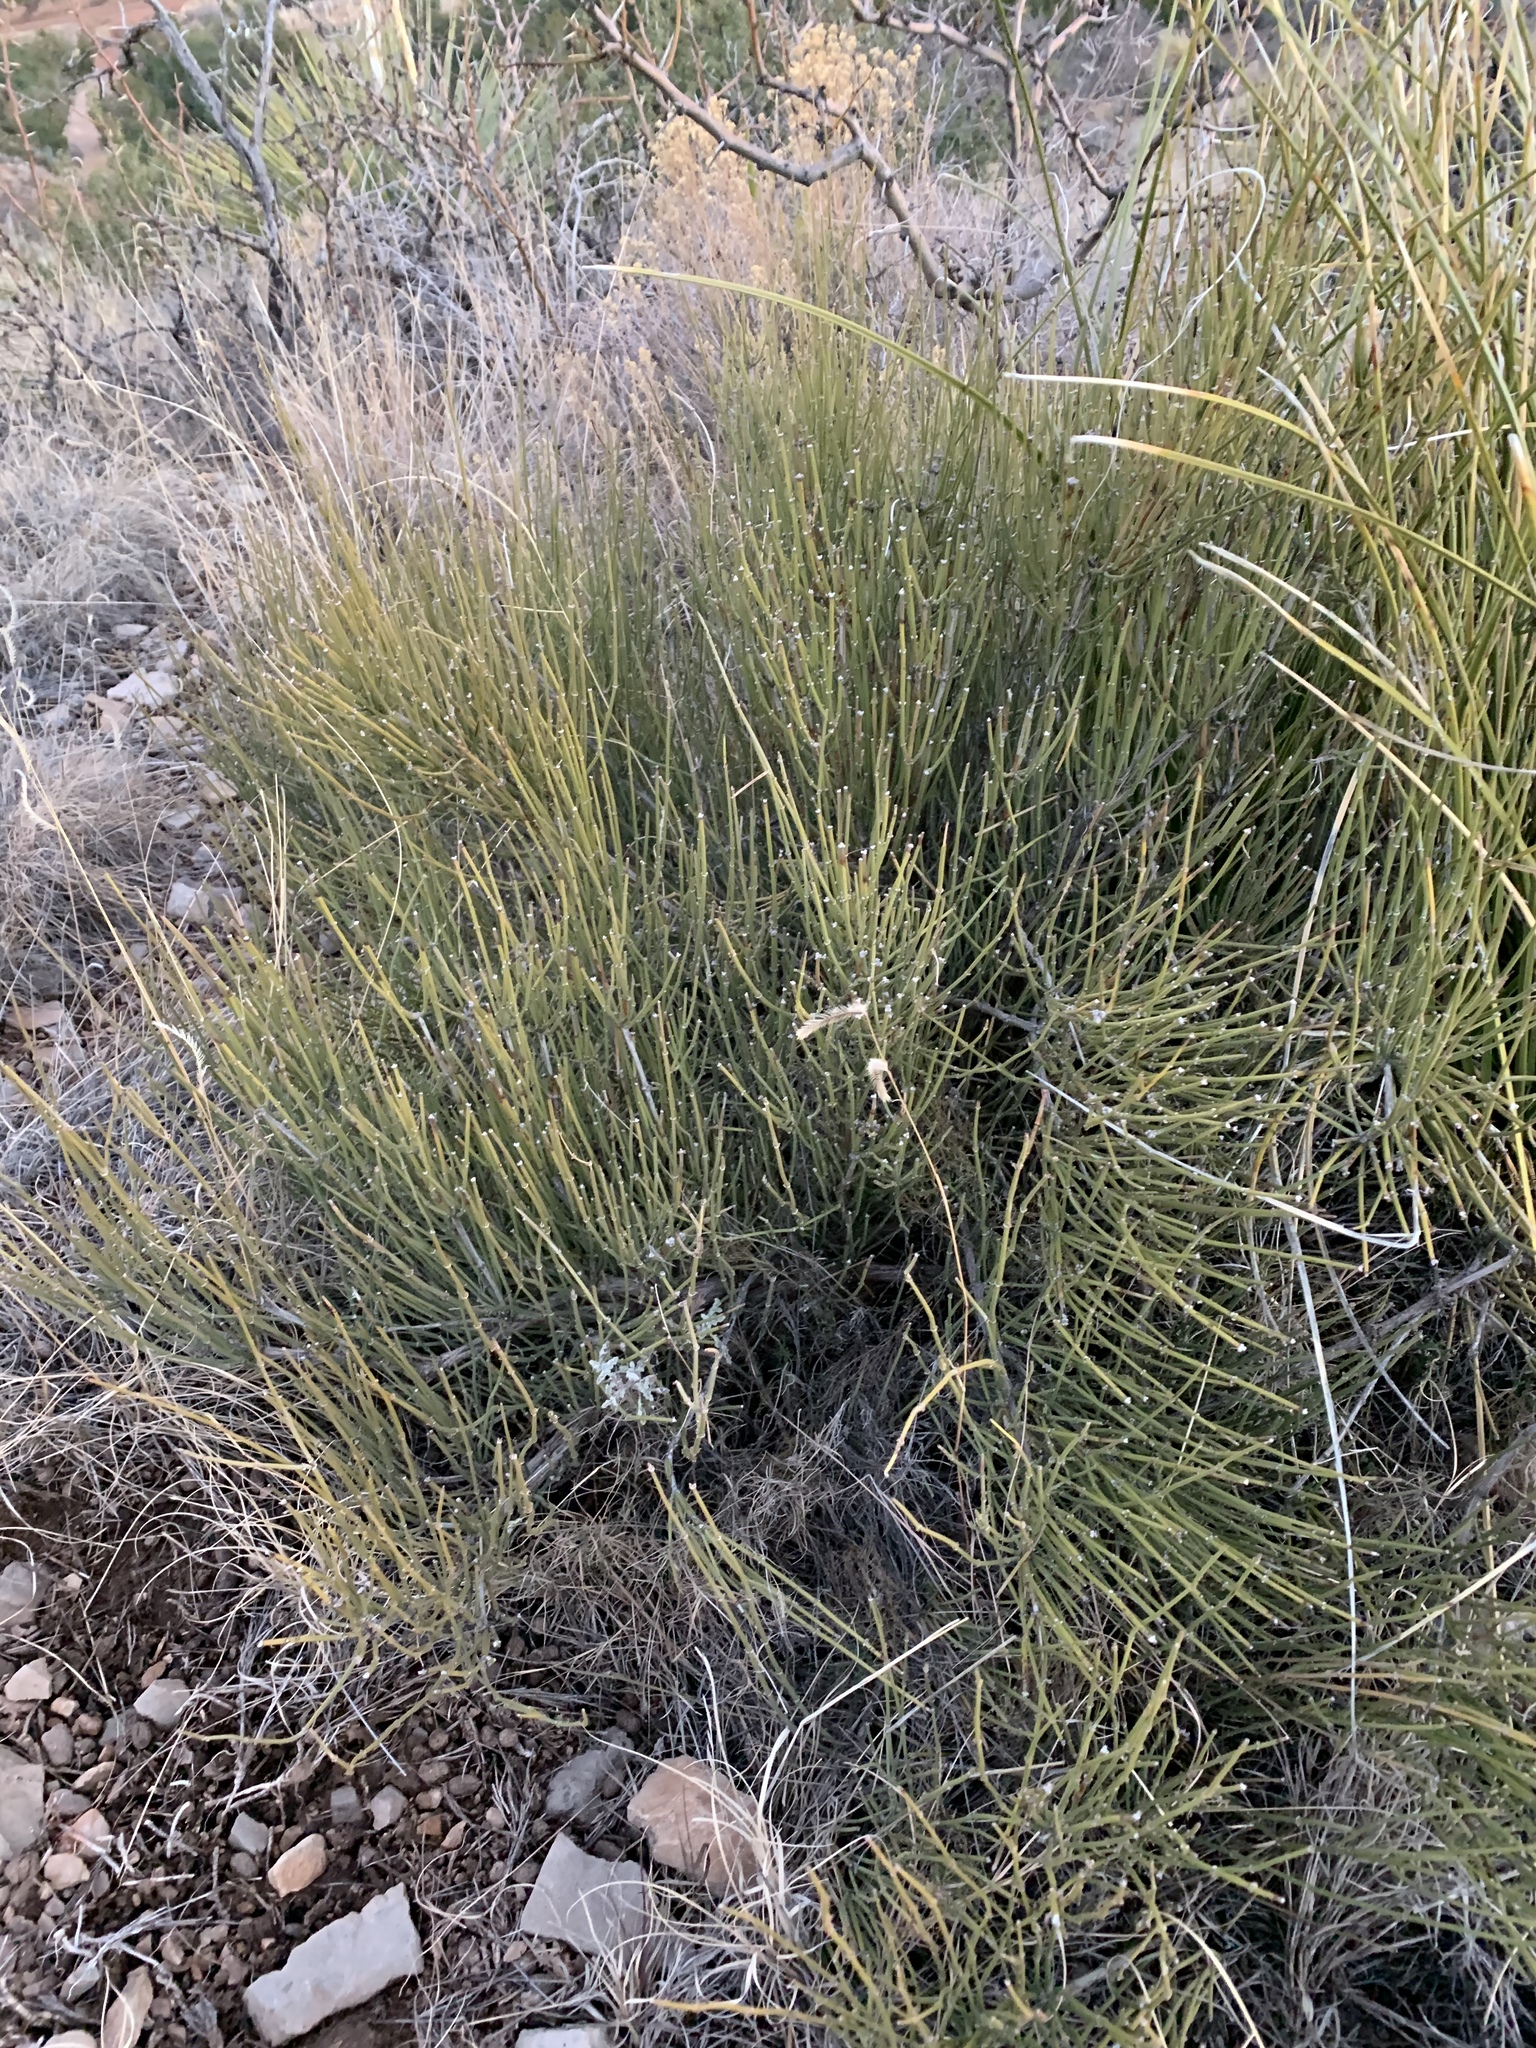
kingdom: Plantae
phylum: Tracheophyta
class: Gnetopsida
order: Ephedrales
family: Ephedraceae
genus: Ephedra
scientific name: Ephedra viridis
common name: Green ephedra
